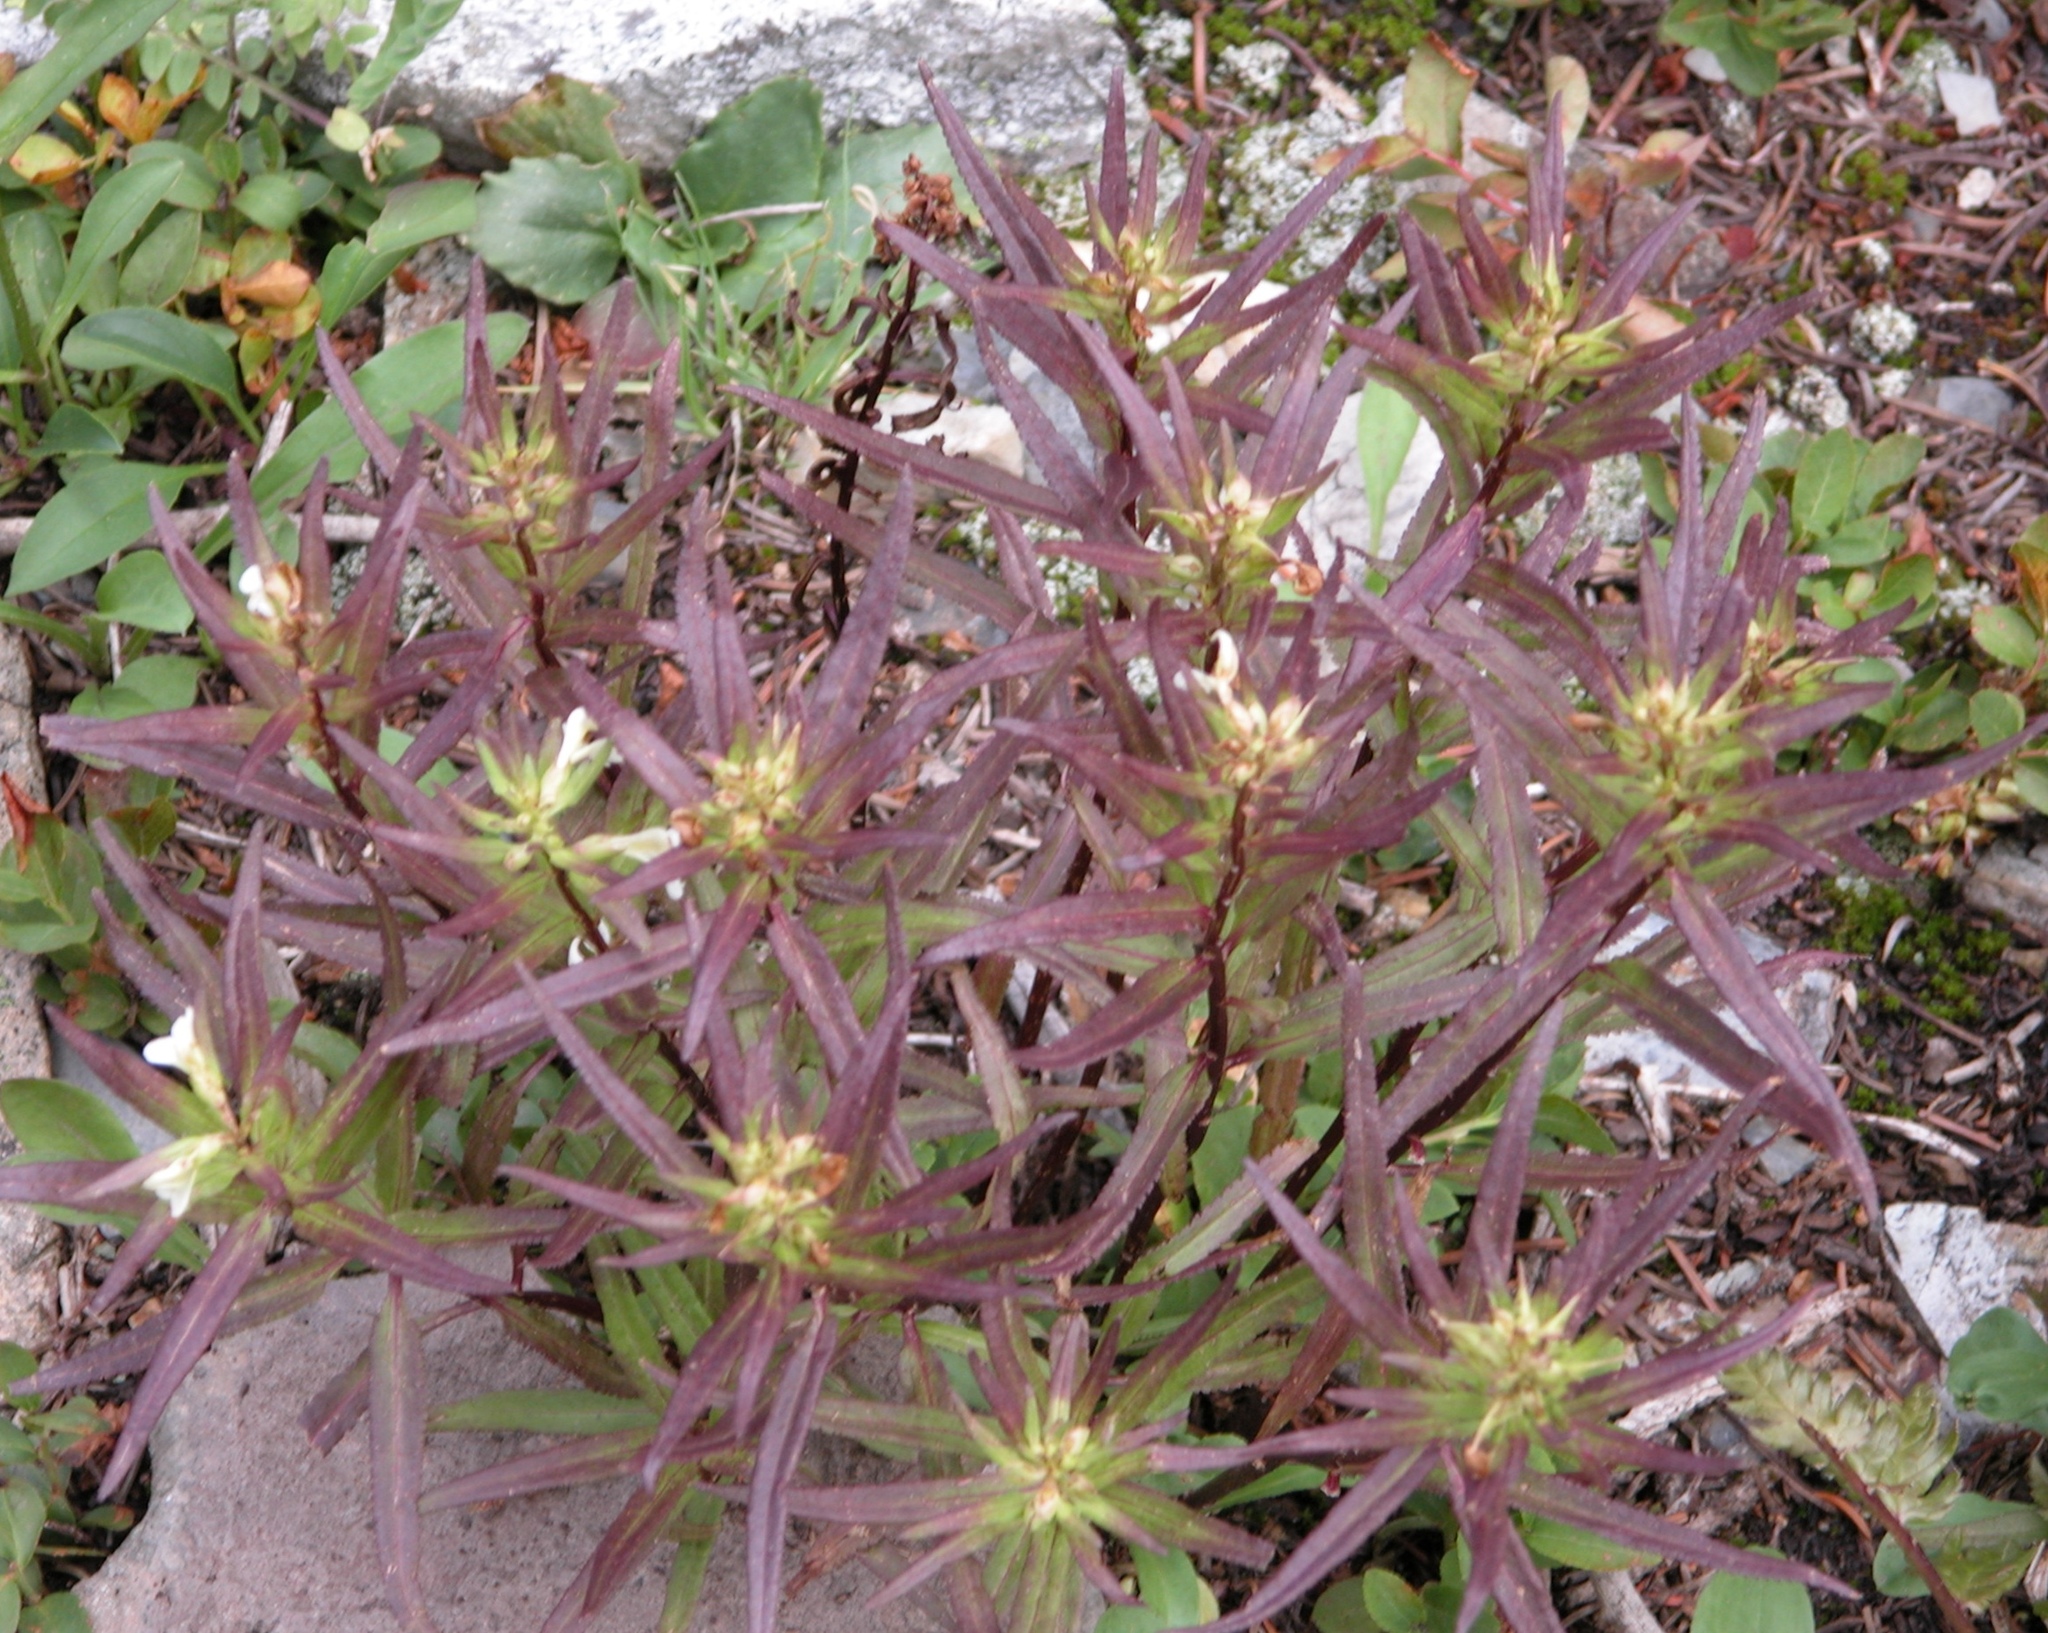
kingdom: Plantae
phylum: Tracheophyta
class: Magnoliopsida
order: Lamiales
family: Orobanchaceae
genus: Pedicularis
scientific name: Pedicularis racemosa
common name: Leafy lousewort
